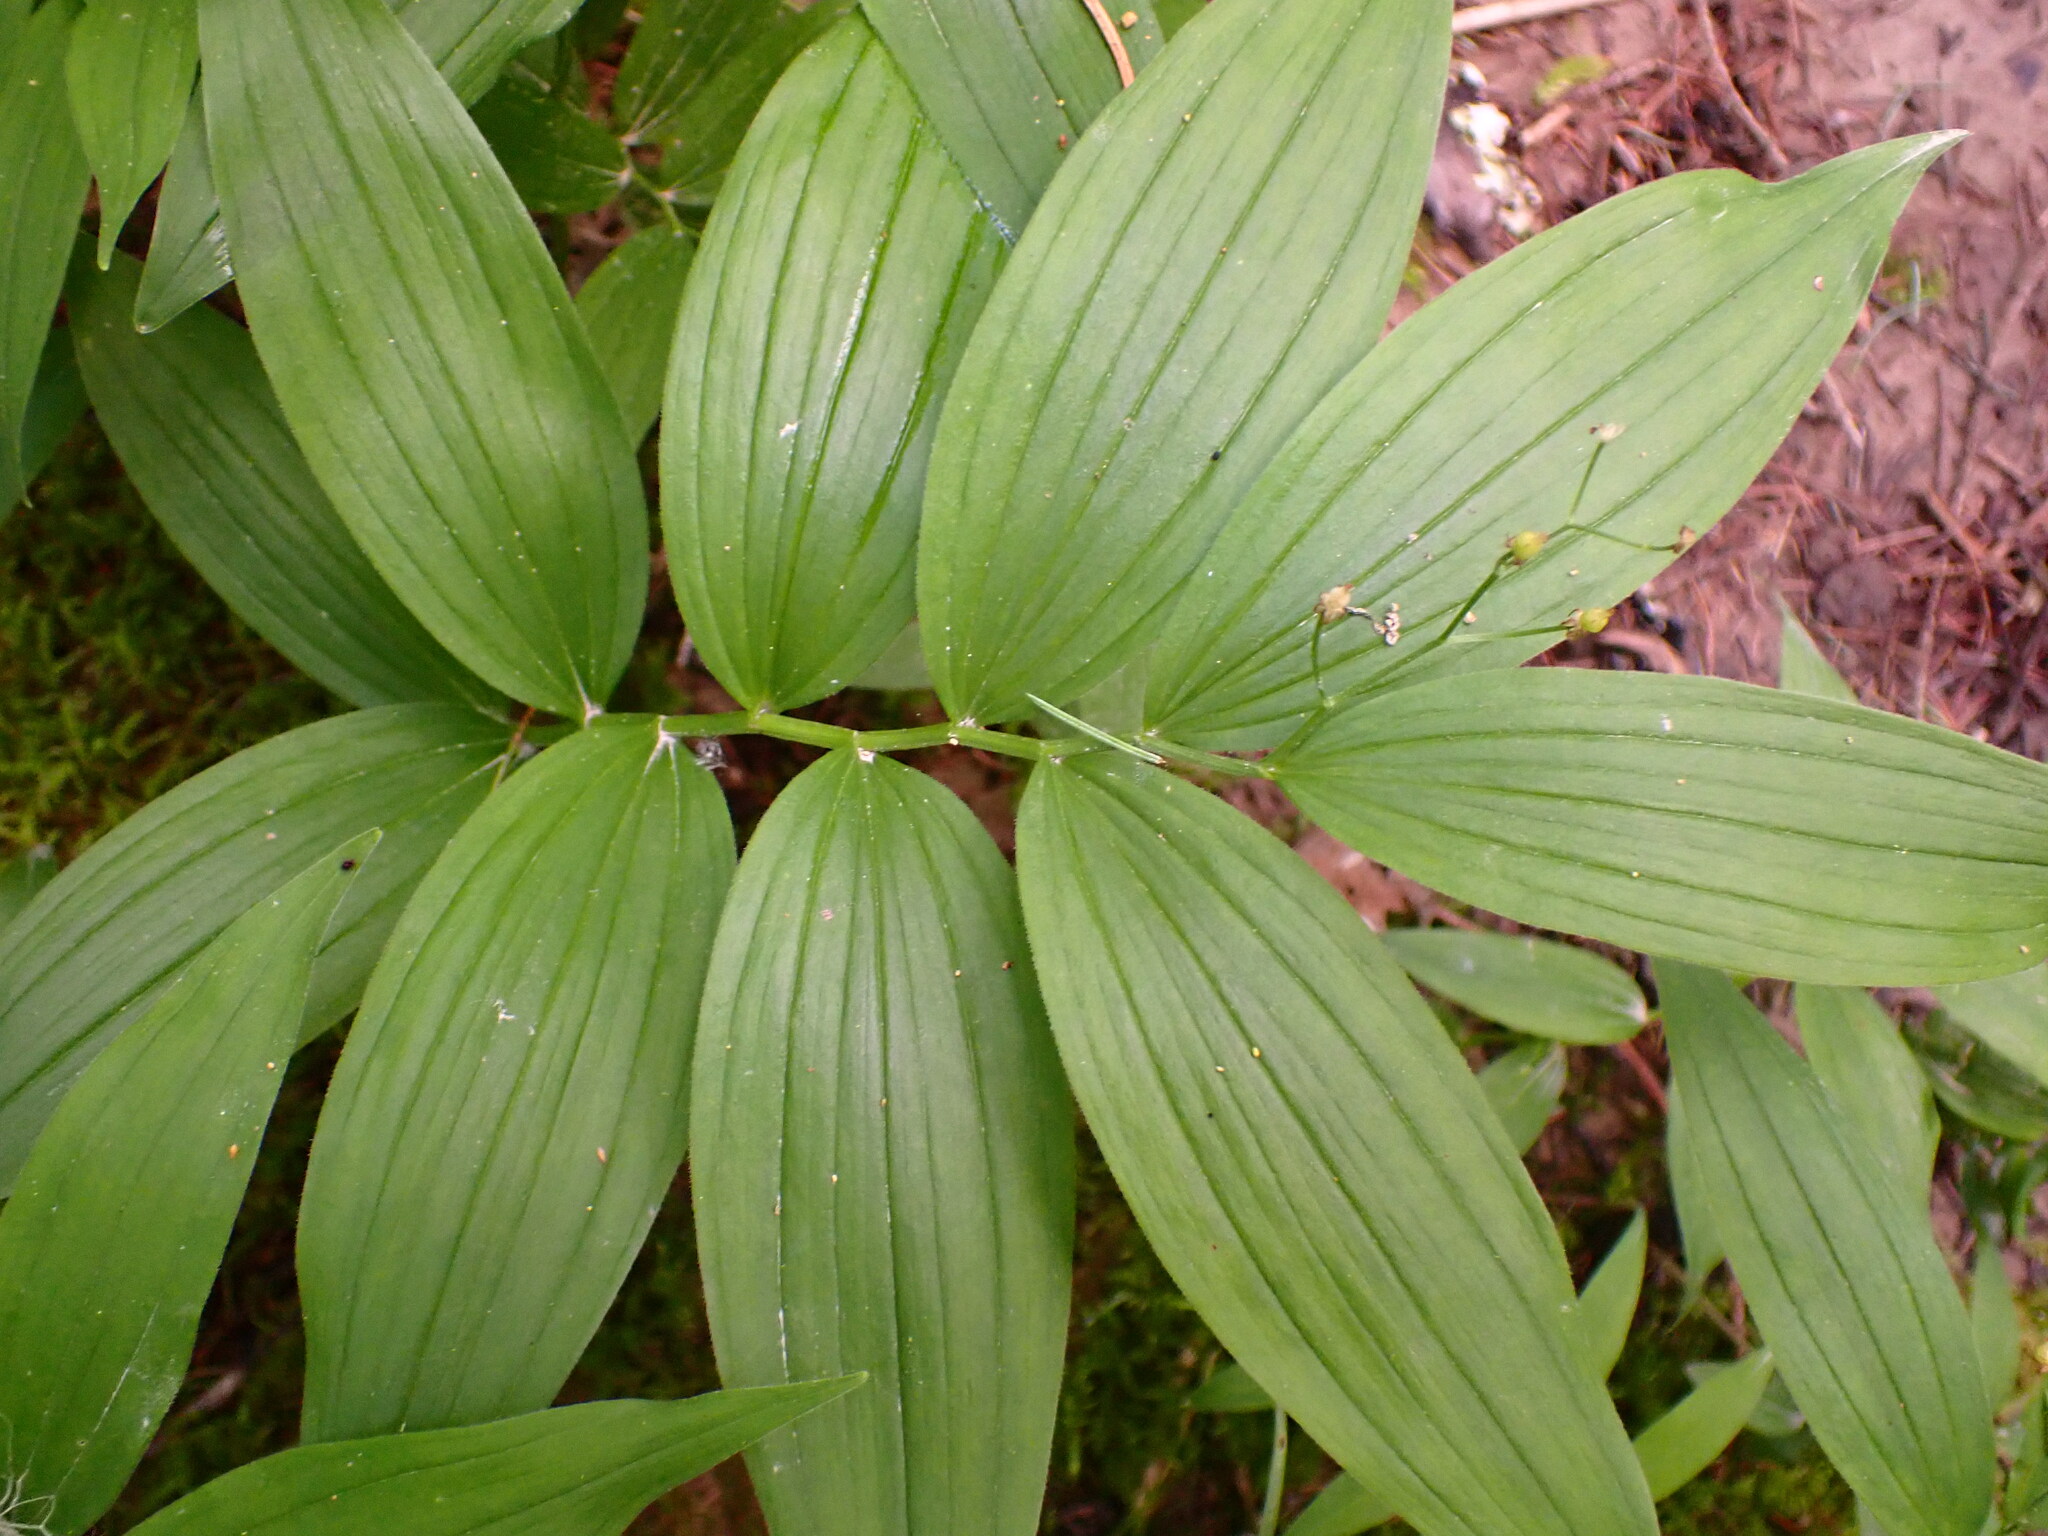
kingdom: Plantae
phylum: Tracheophyta
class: Liliopsida
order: Asparagales
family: Asparagaceae
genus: Maianthemum
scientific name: Maianthemum stellatum
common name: Little false solomon's seal
